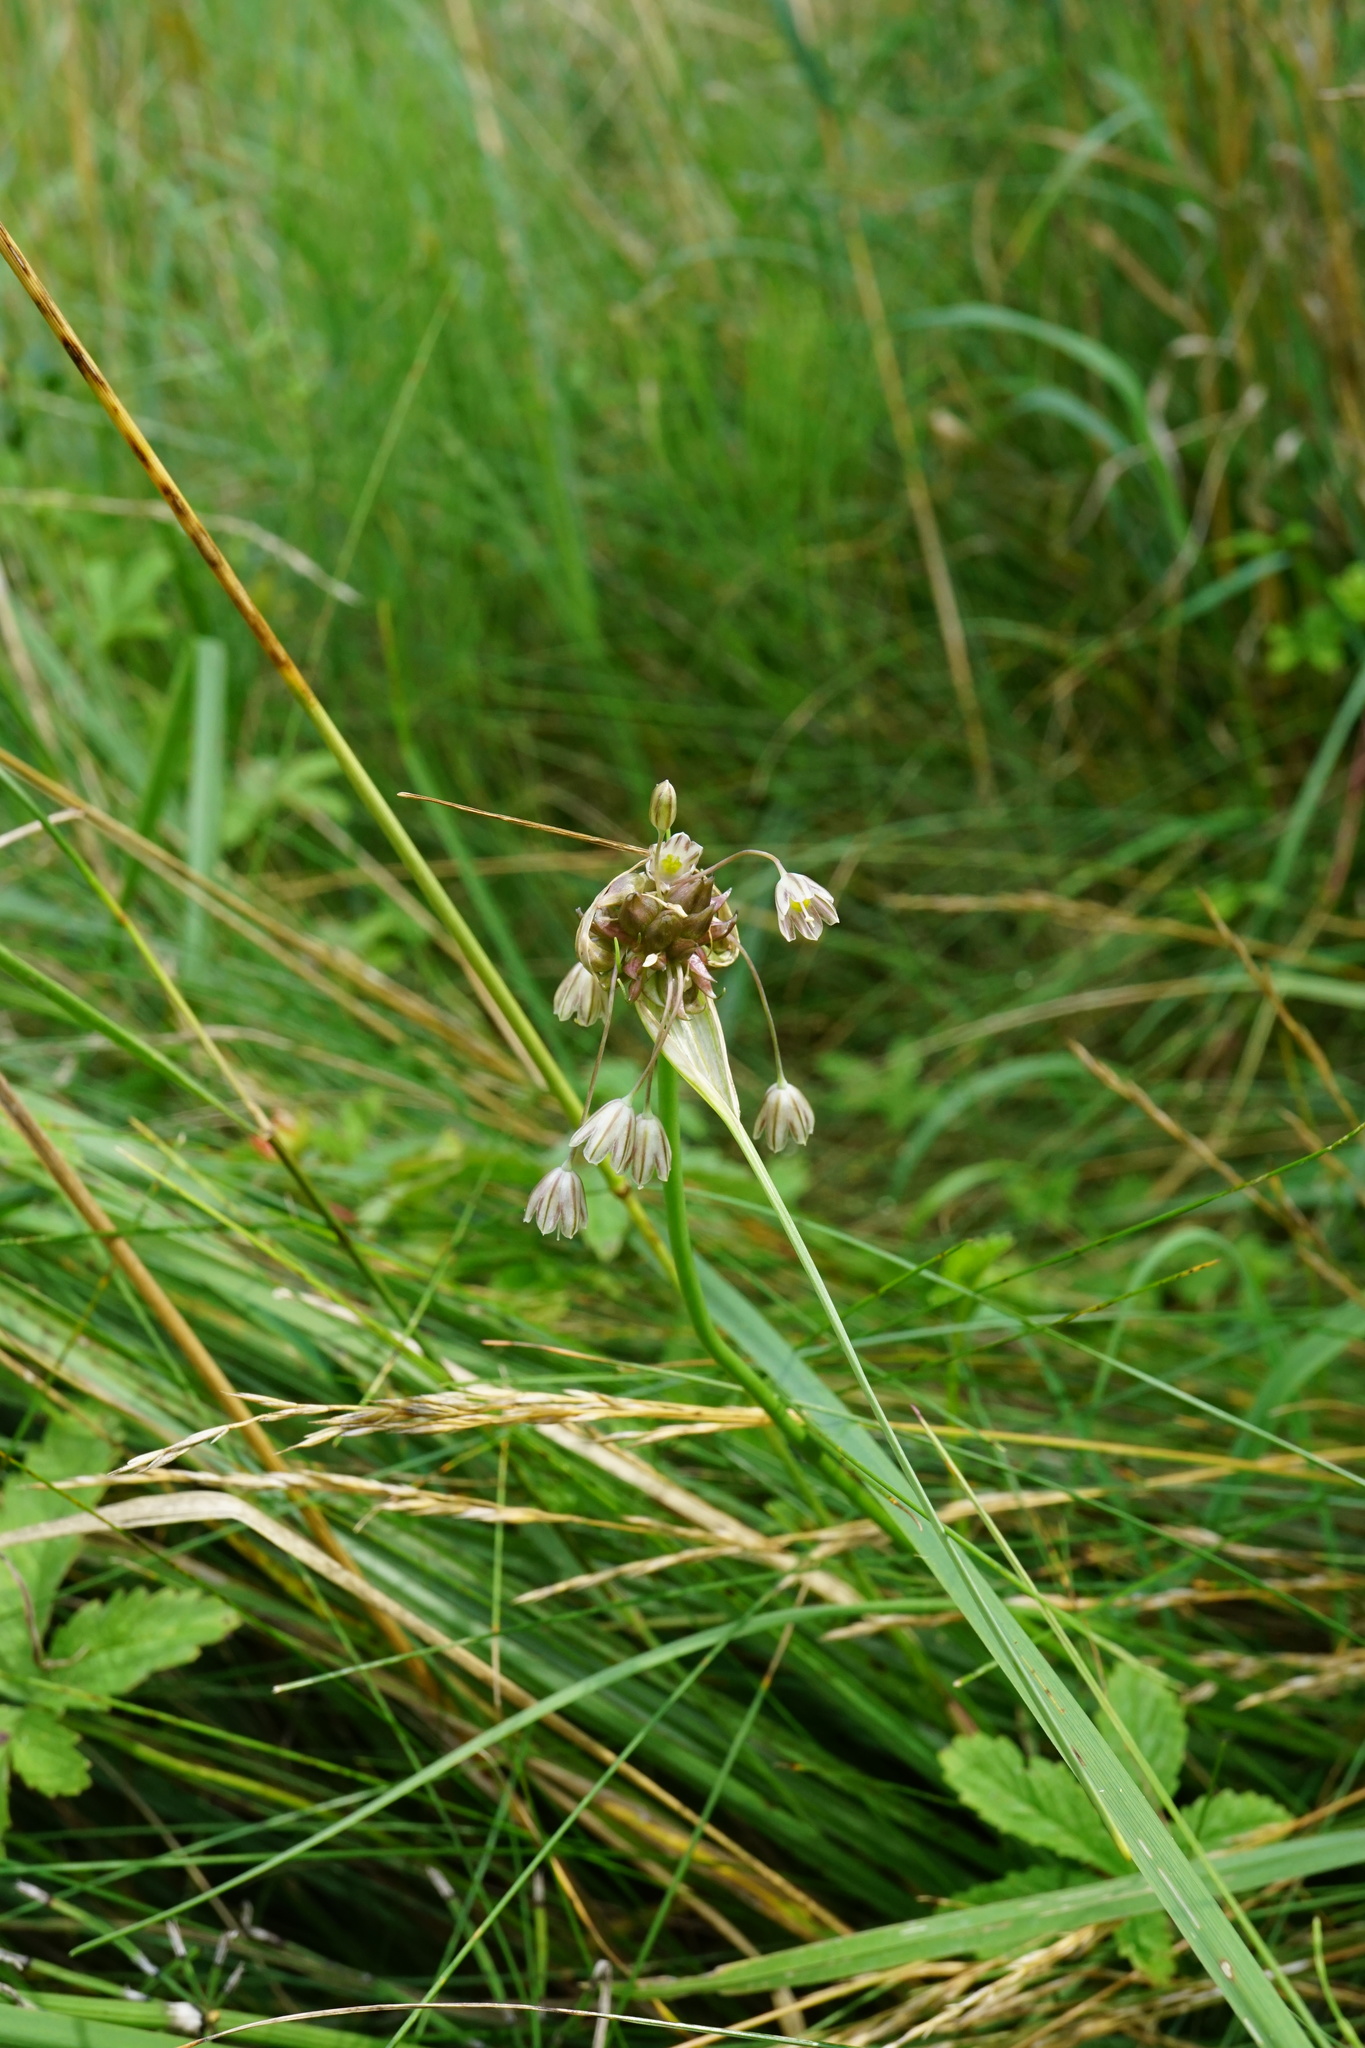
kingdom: Plantae
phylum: Tracheophyta
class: Liliopsida
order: Asparagales
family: Amaryllidaceae
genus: Allium
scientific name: Allium oleraceum
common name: Field garlic
